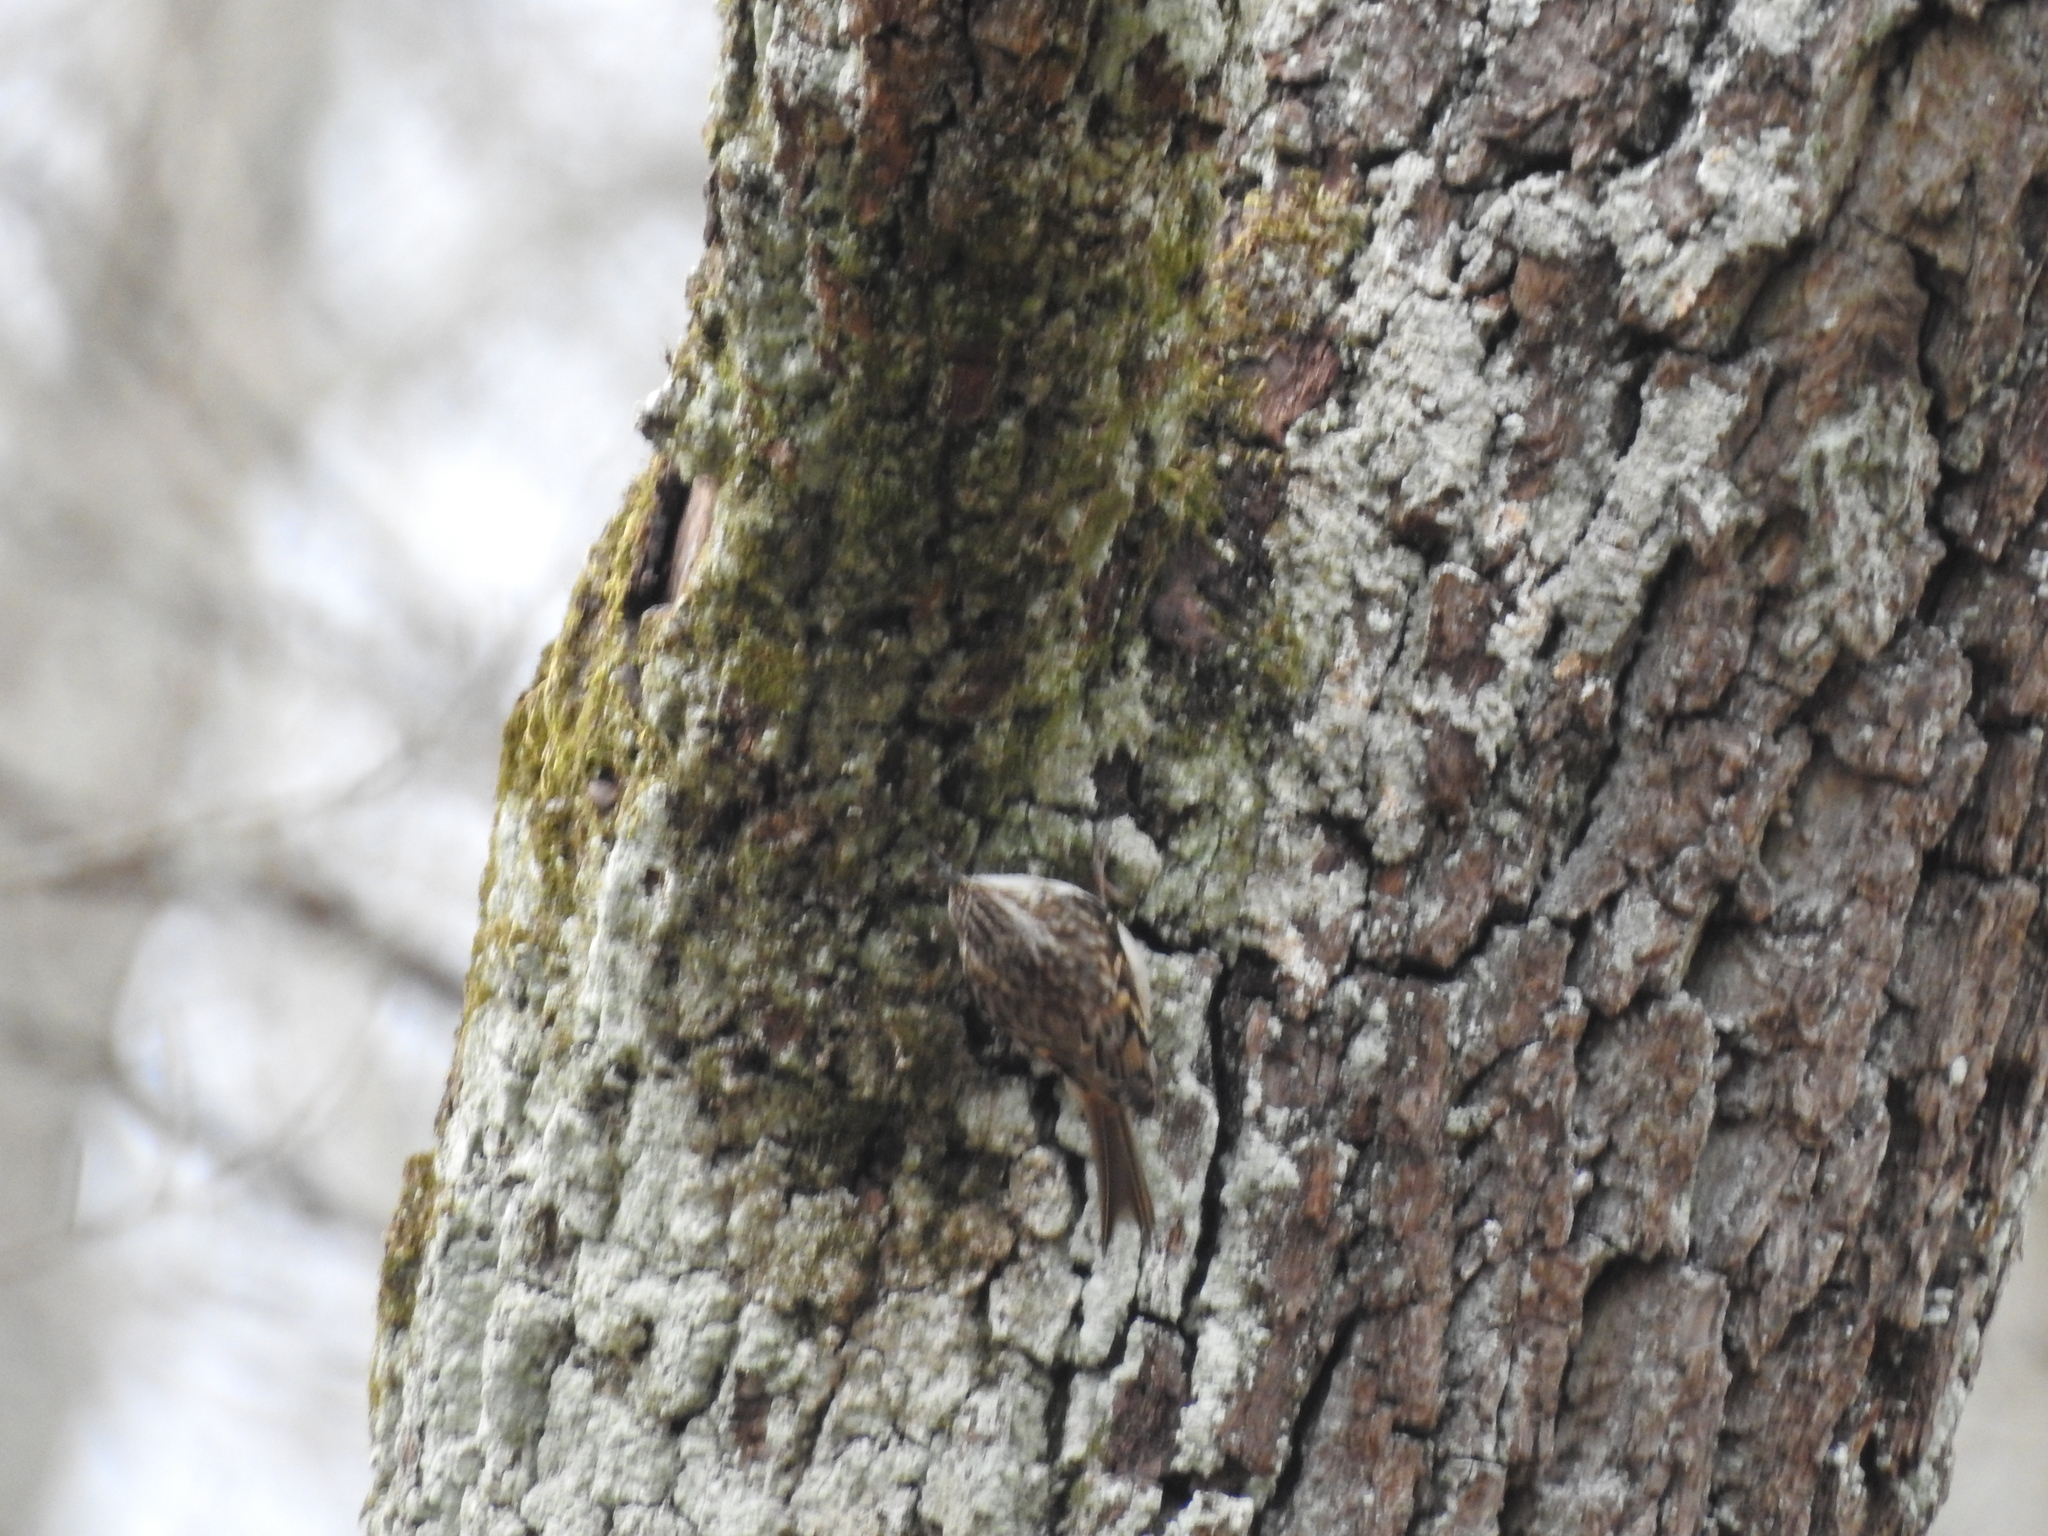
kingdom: Animalia
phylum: Chordata
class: Aves
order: Passeriformes
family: Certhiidae
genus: Certhia
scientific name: Certhia americana
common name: Brown creeper
